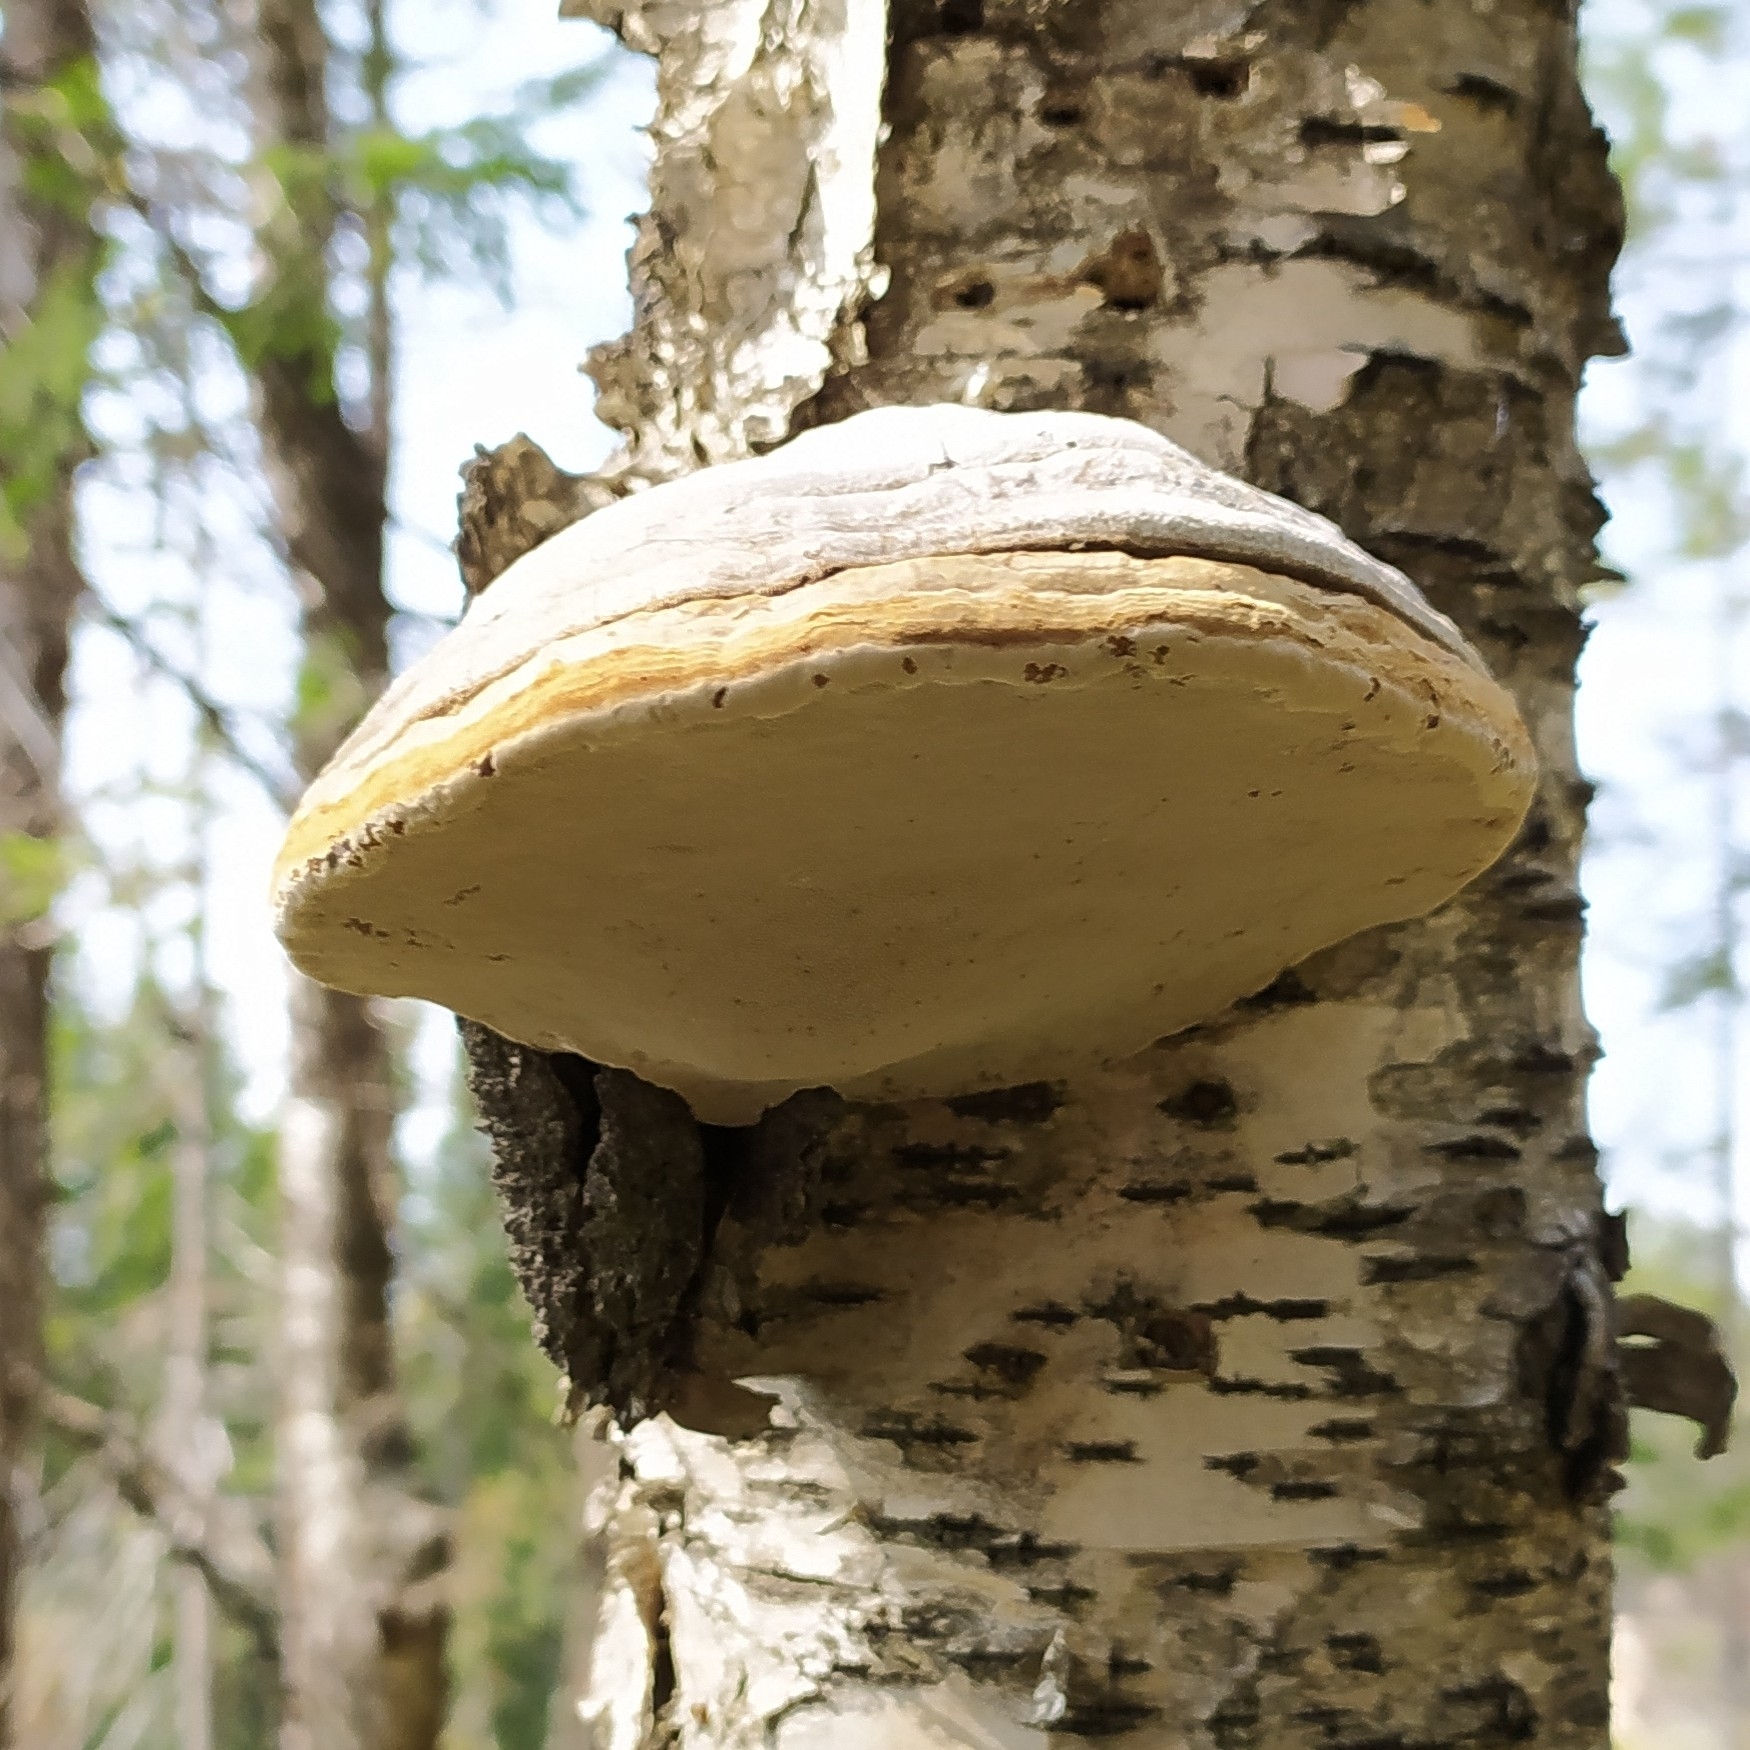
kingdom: Fungi
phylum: Basidiomycota
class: Agaricomycetes
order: Polyporales
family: Polyporaceae
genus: Fomes
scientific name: Fomes fomentarius
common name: Hoof fungus
